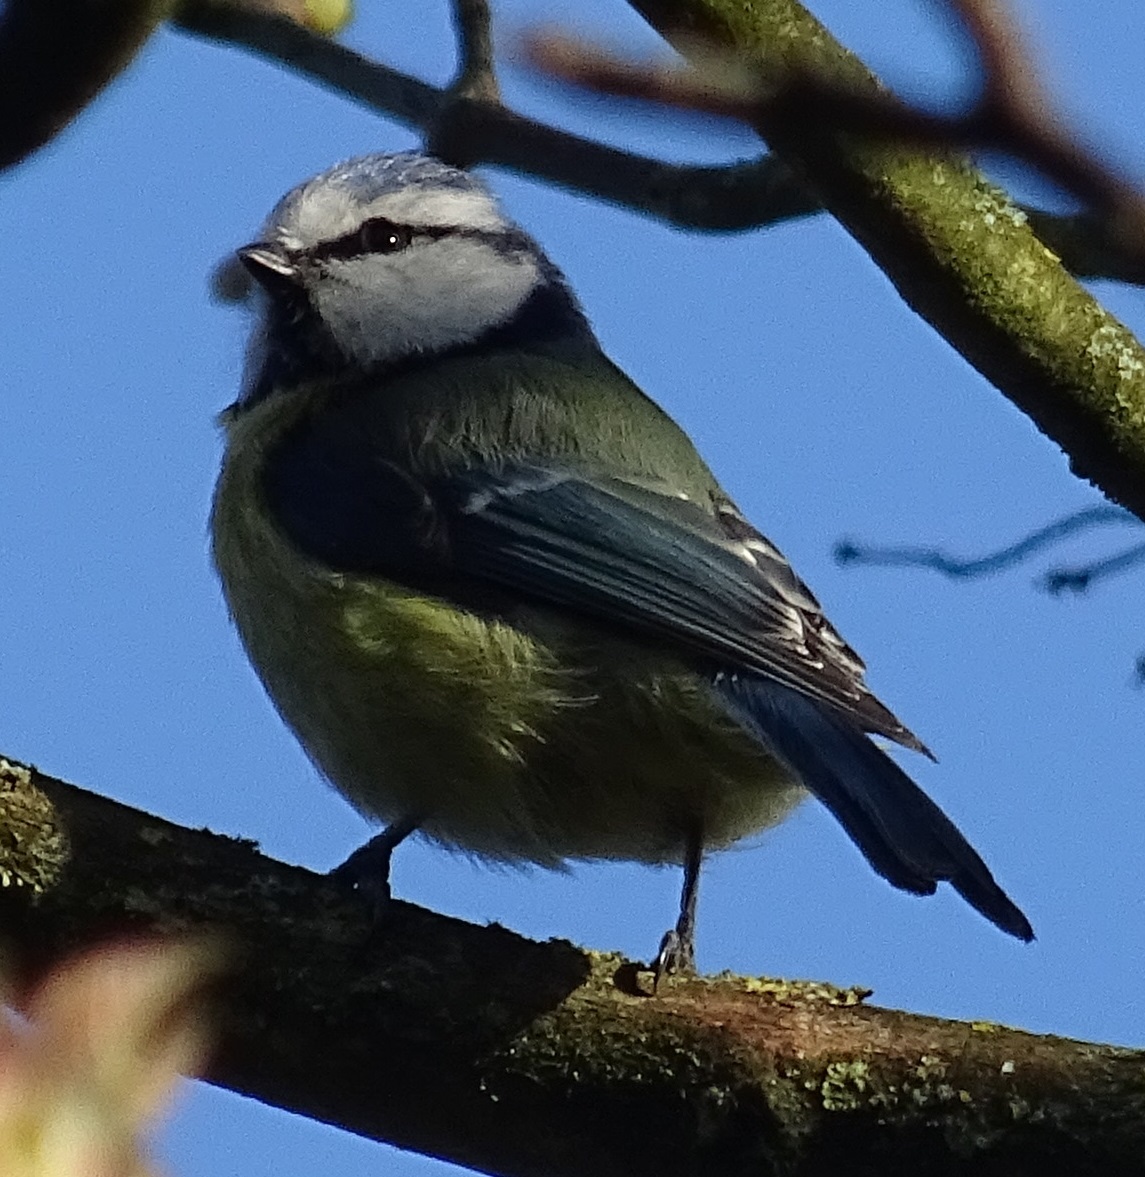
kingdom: Animalia
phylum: Chordata
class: Aves
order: Passeriformes
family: Paridae
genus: Cyanistes
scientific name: Cyanistes caeruleus
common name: Eurasian blue tit
